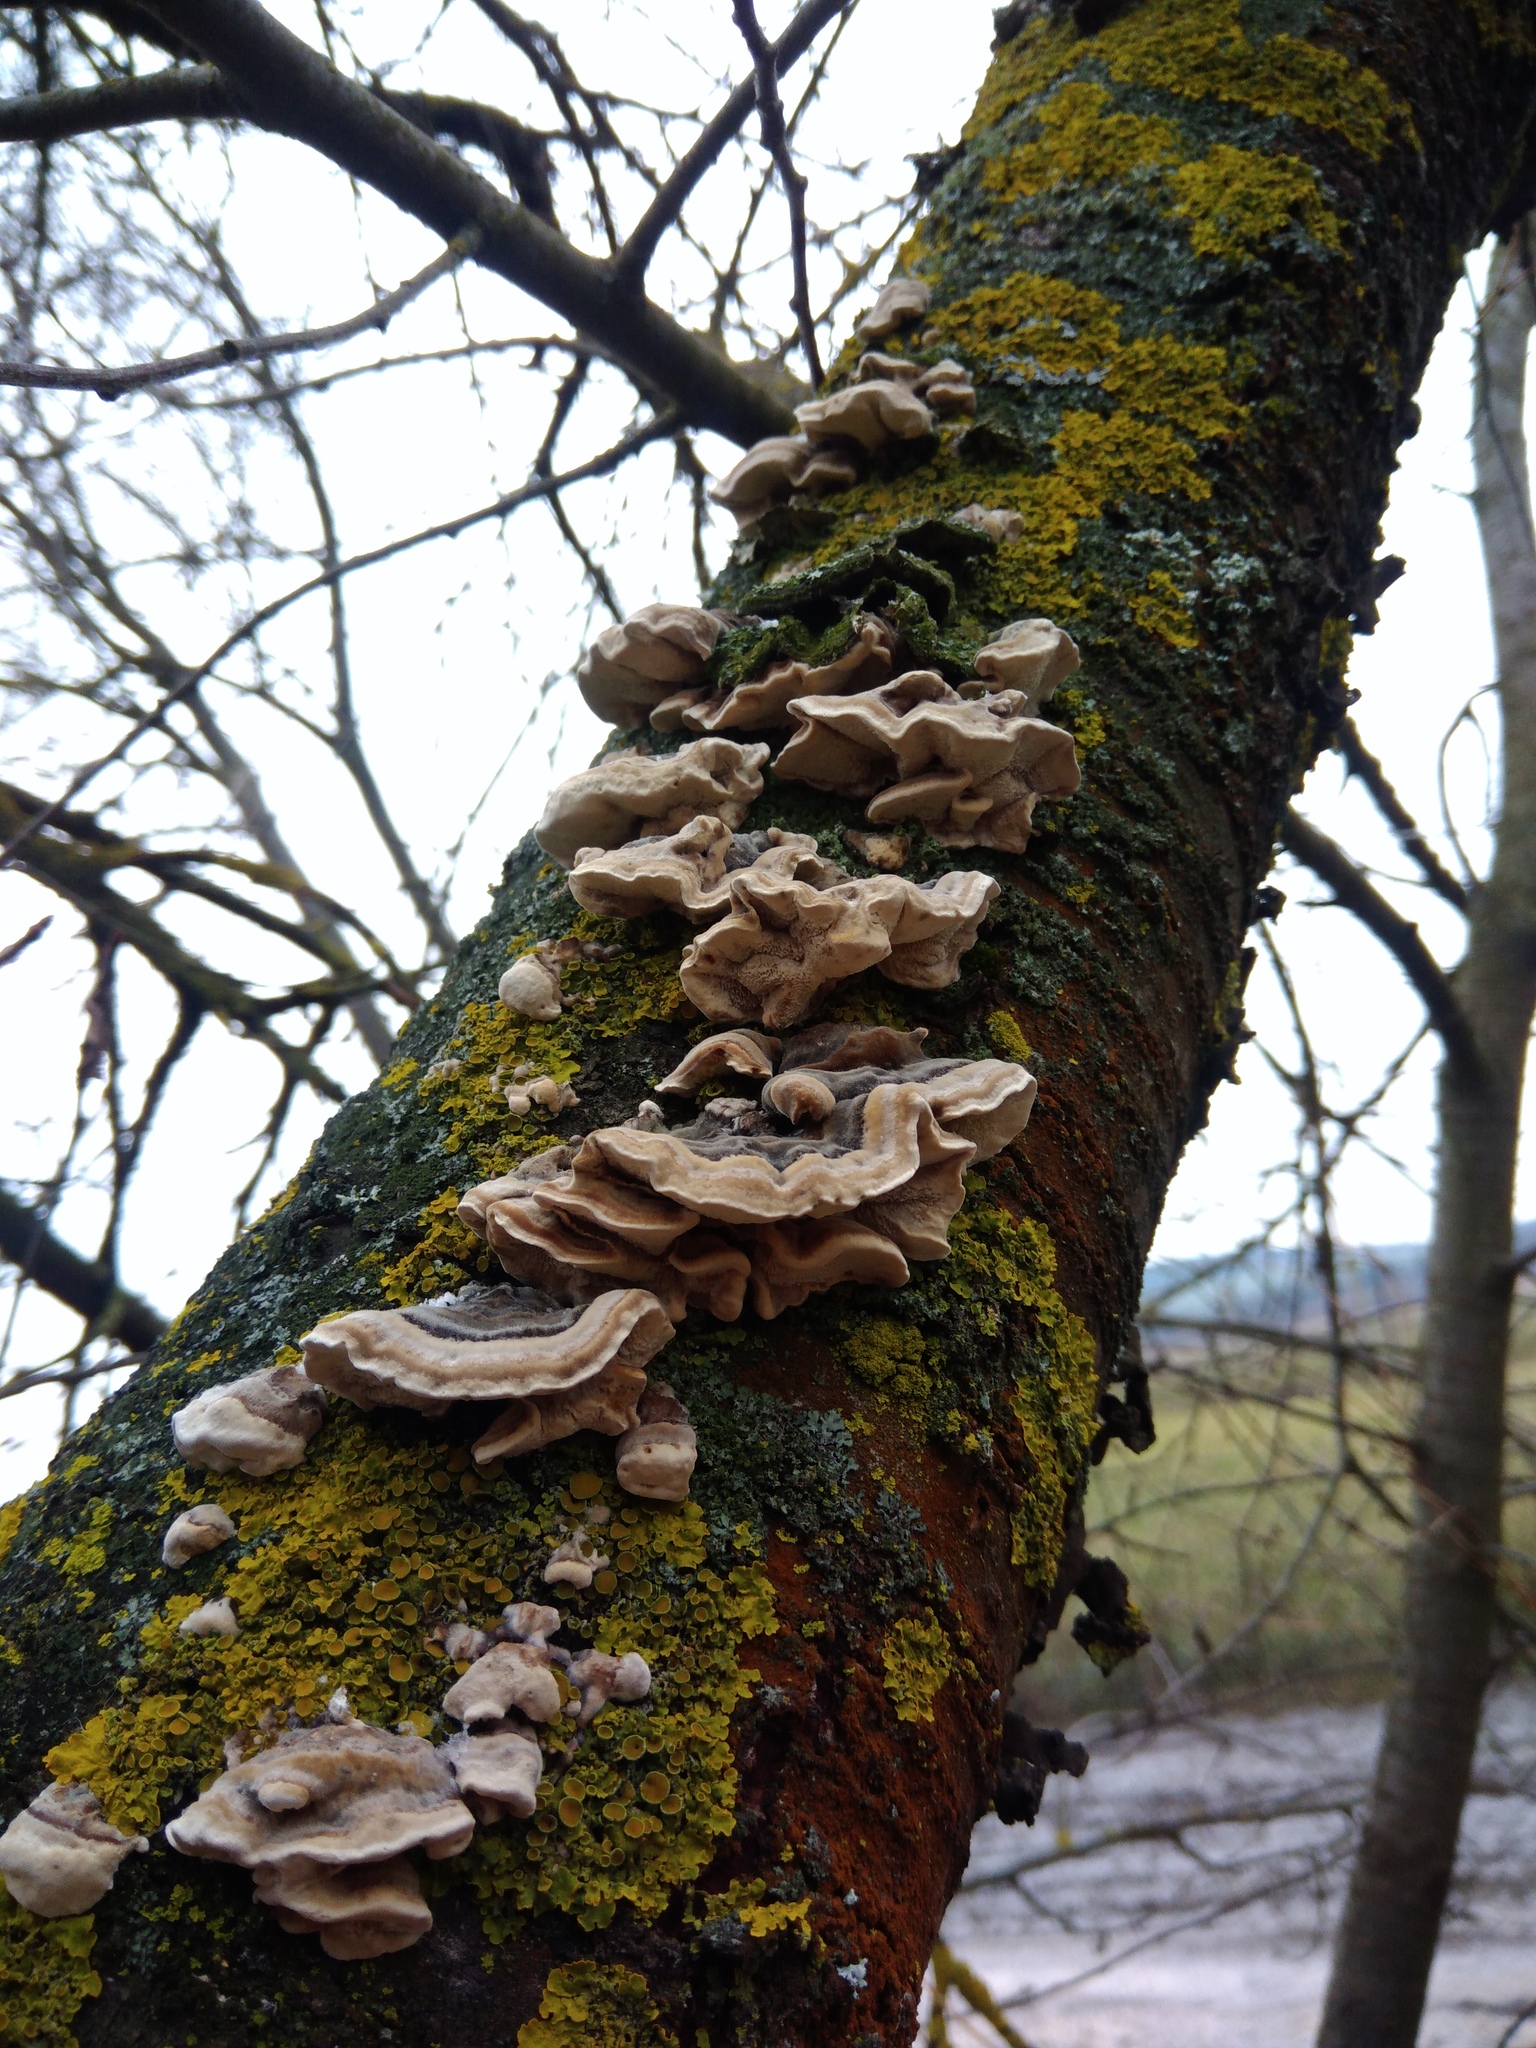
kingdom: Fungi
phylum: Basidiomycota
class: Agaricomycetes
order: Polyporales
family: Polyporaceae
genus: Trametes
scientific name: Trametes versicolor
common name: Turkeytail
